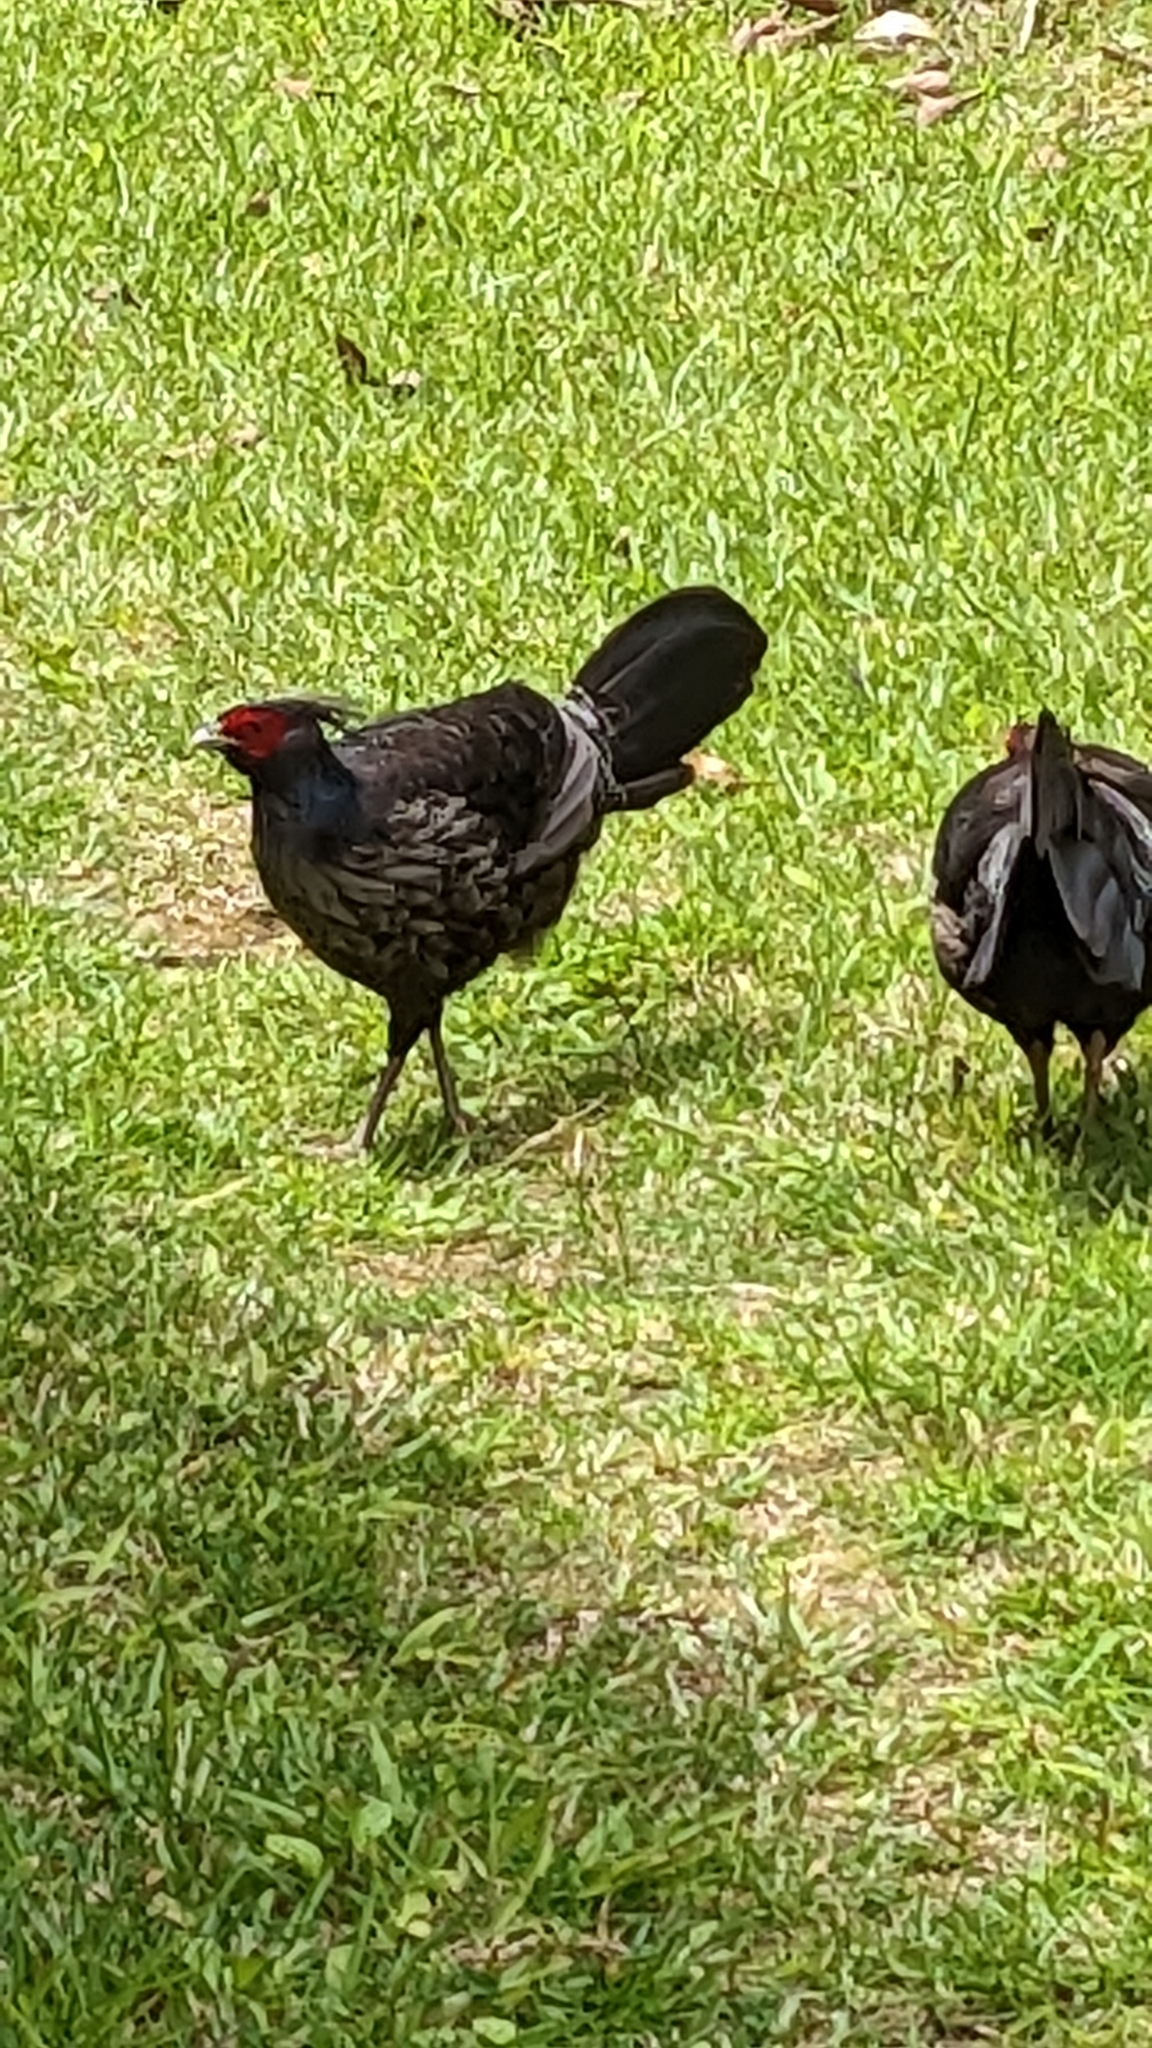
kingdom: Animalia
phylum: Chordata
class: Aves
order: Galliformes
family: Phasianidae
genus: Lophura
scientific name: Lophura leucomelanos
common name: Kalij pheasant
